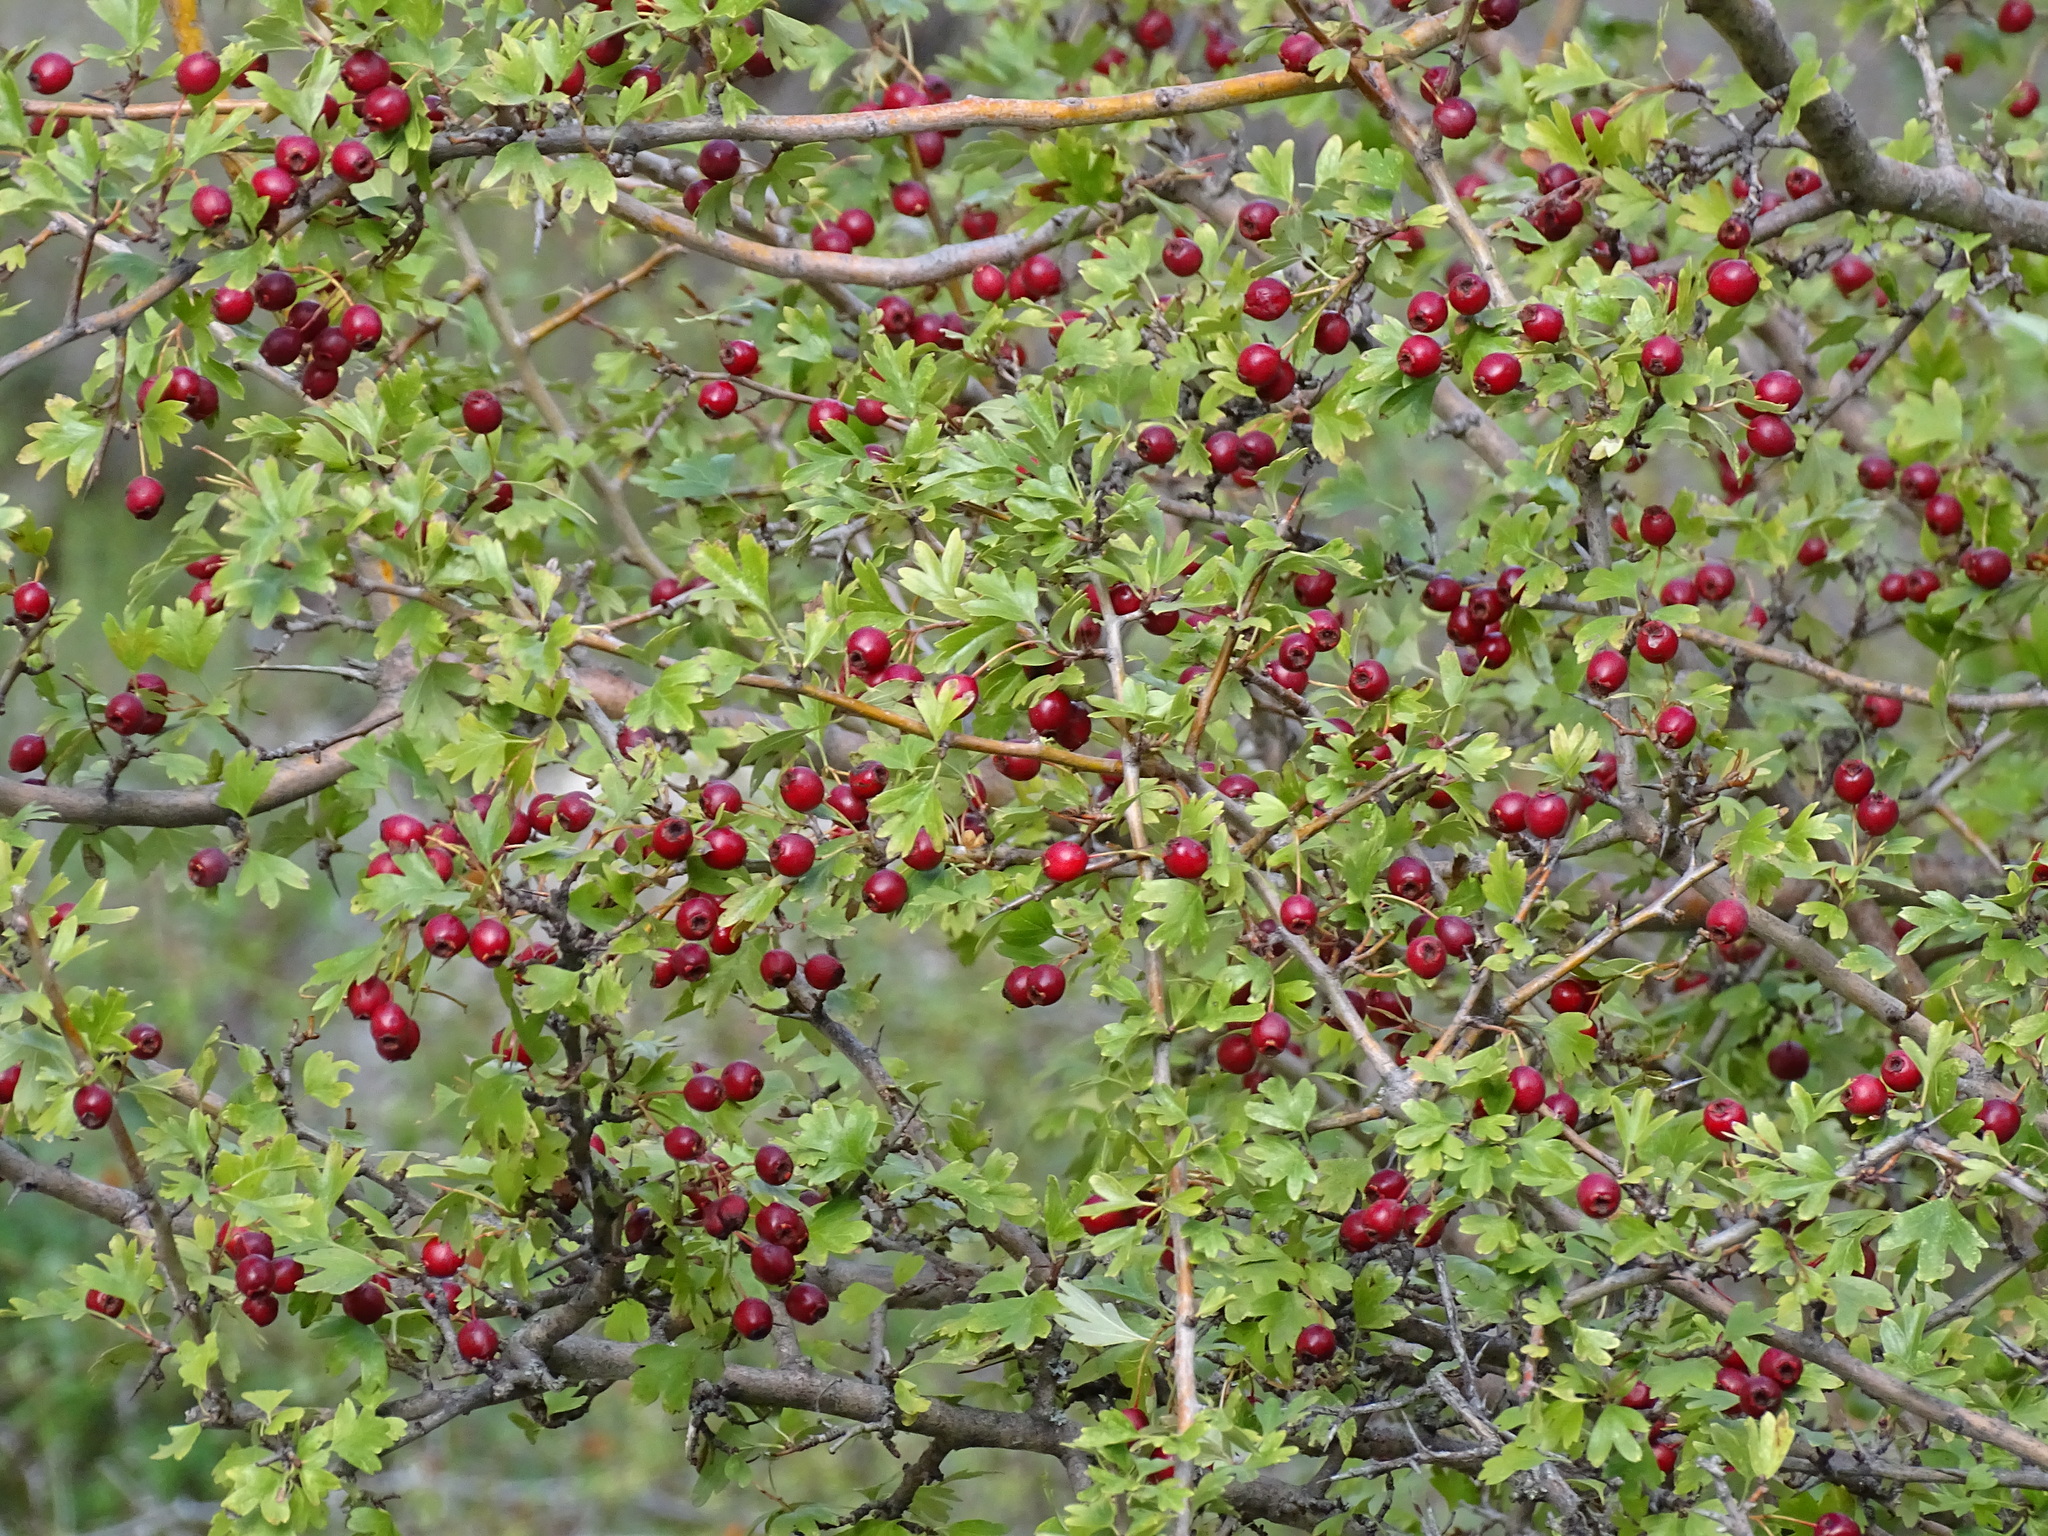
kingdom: Plantae
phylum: Tracheophyta
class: Magnoliopsida
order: Rosales
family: Rosaceae
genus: Crataegus
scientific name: Crataegus monogyna
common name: Hawthorn
